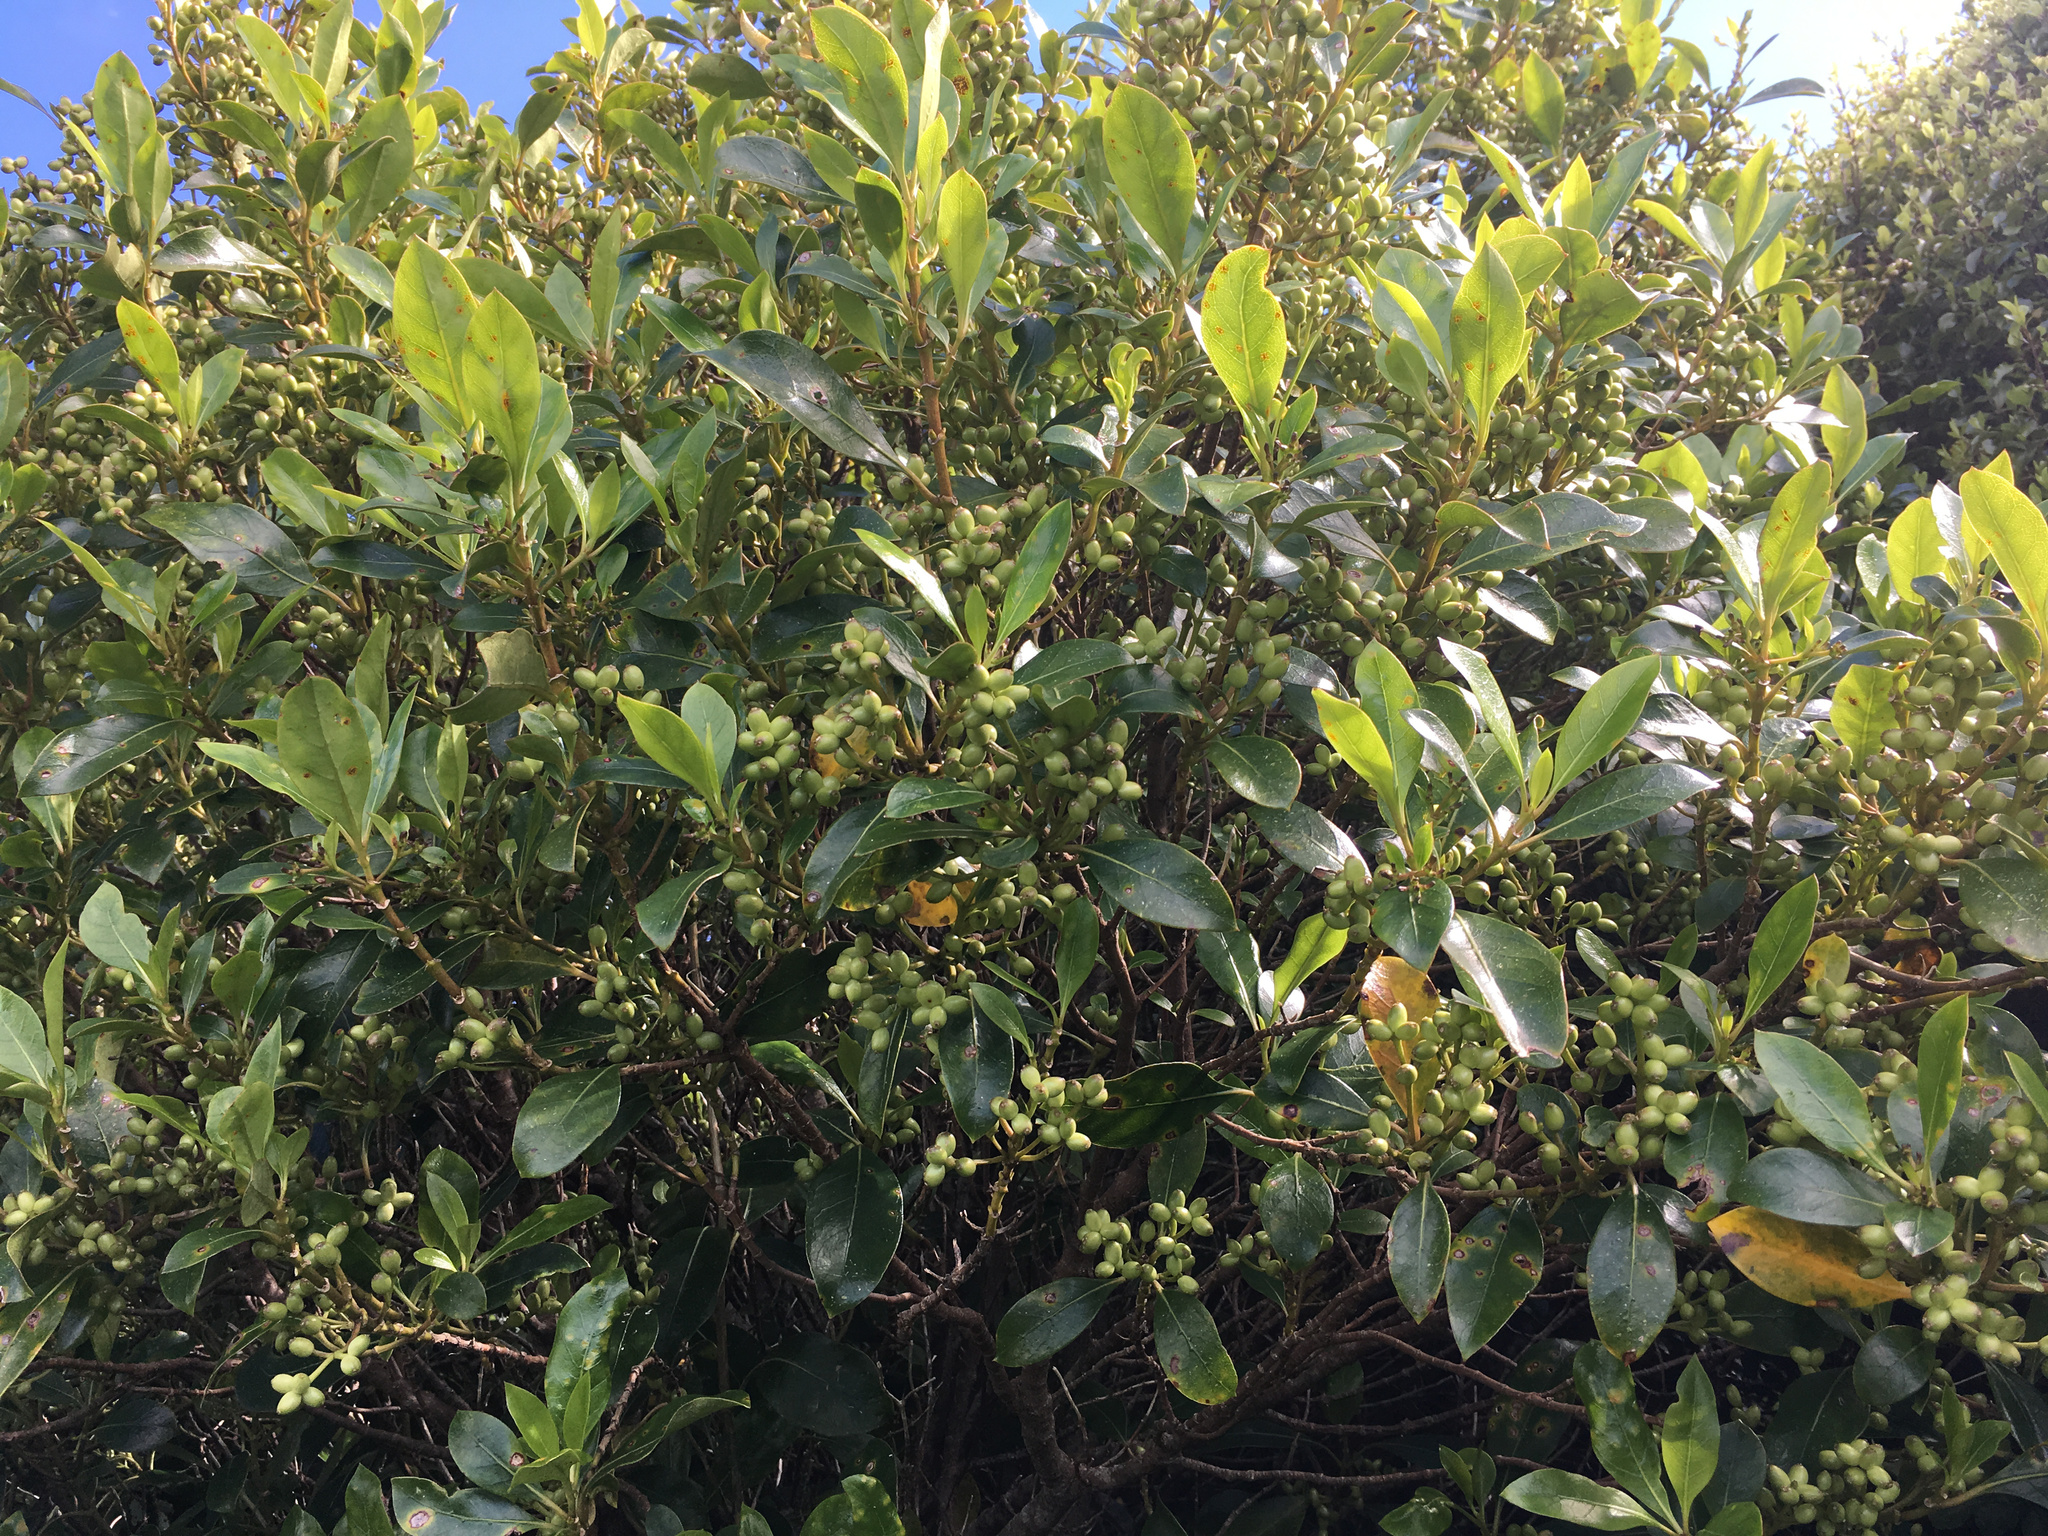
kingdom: Plantae
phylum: Tracheophyta
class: Magnoliopsida
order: Gentianales
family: Rubiaceae
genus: Coprosma
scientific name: Coprosma lucida
